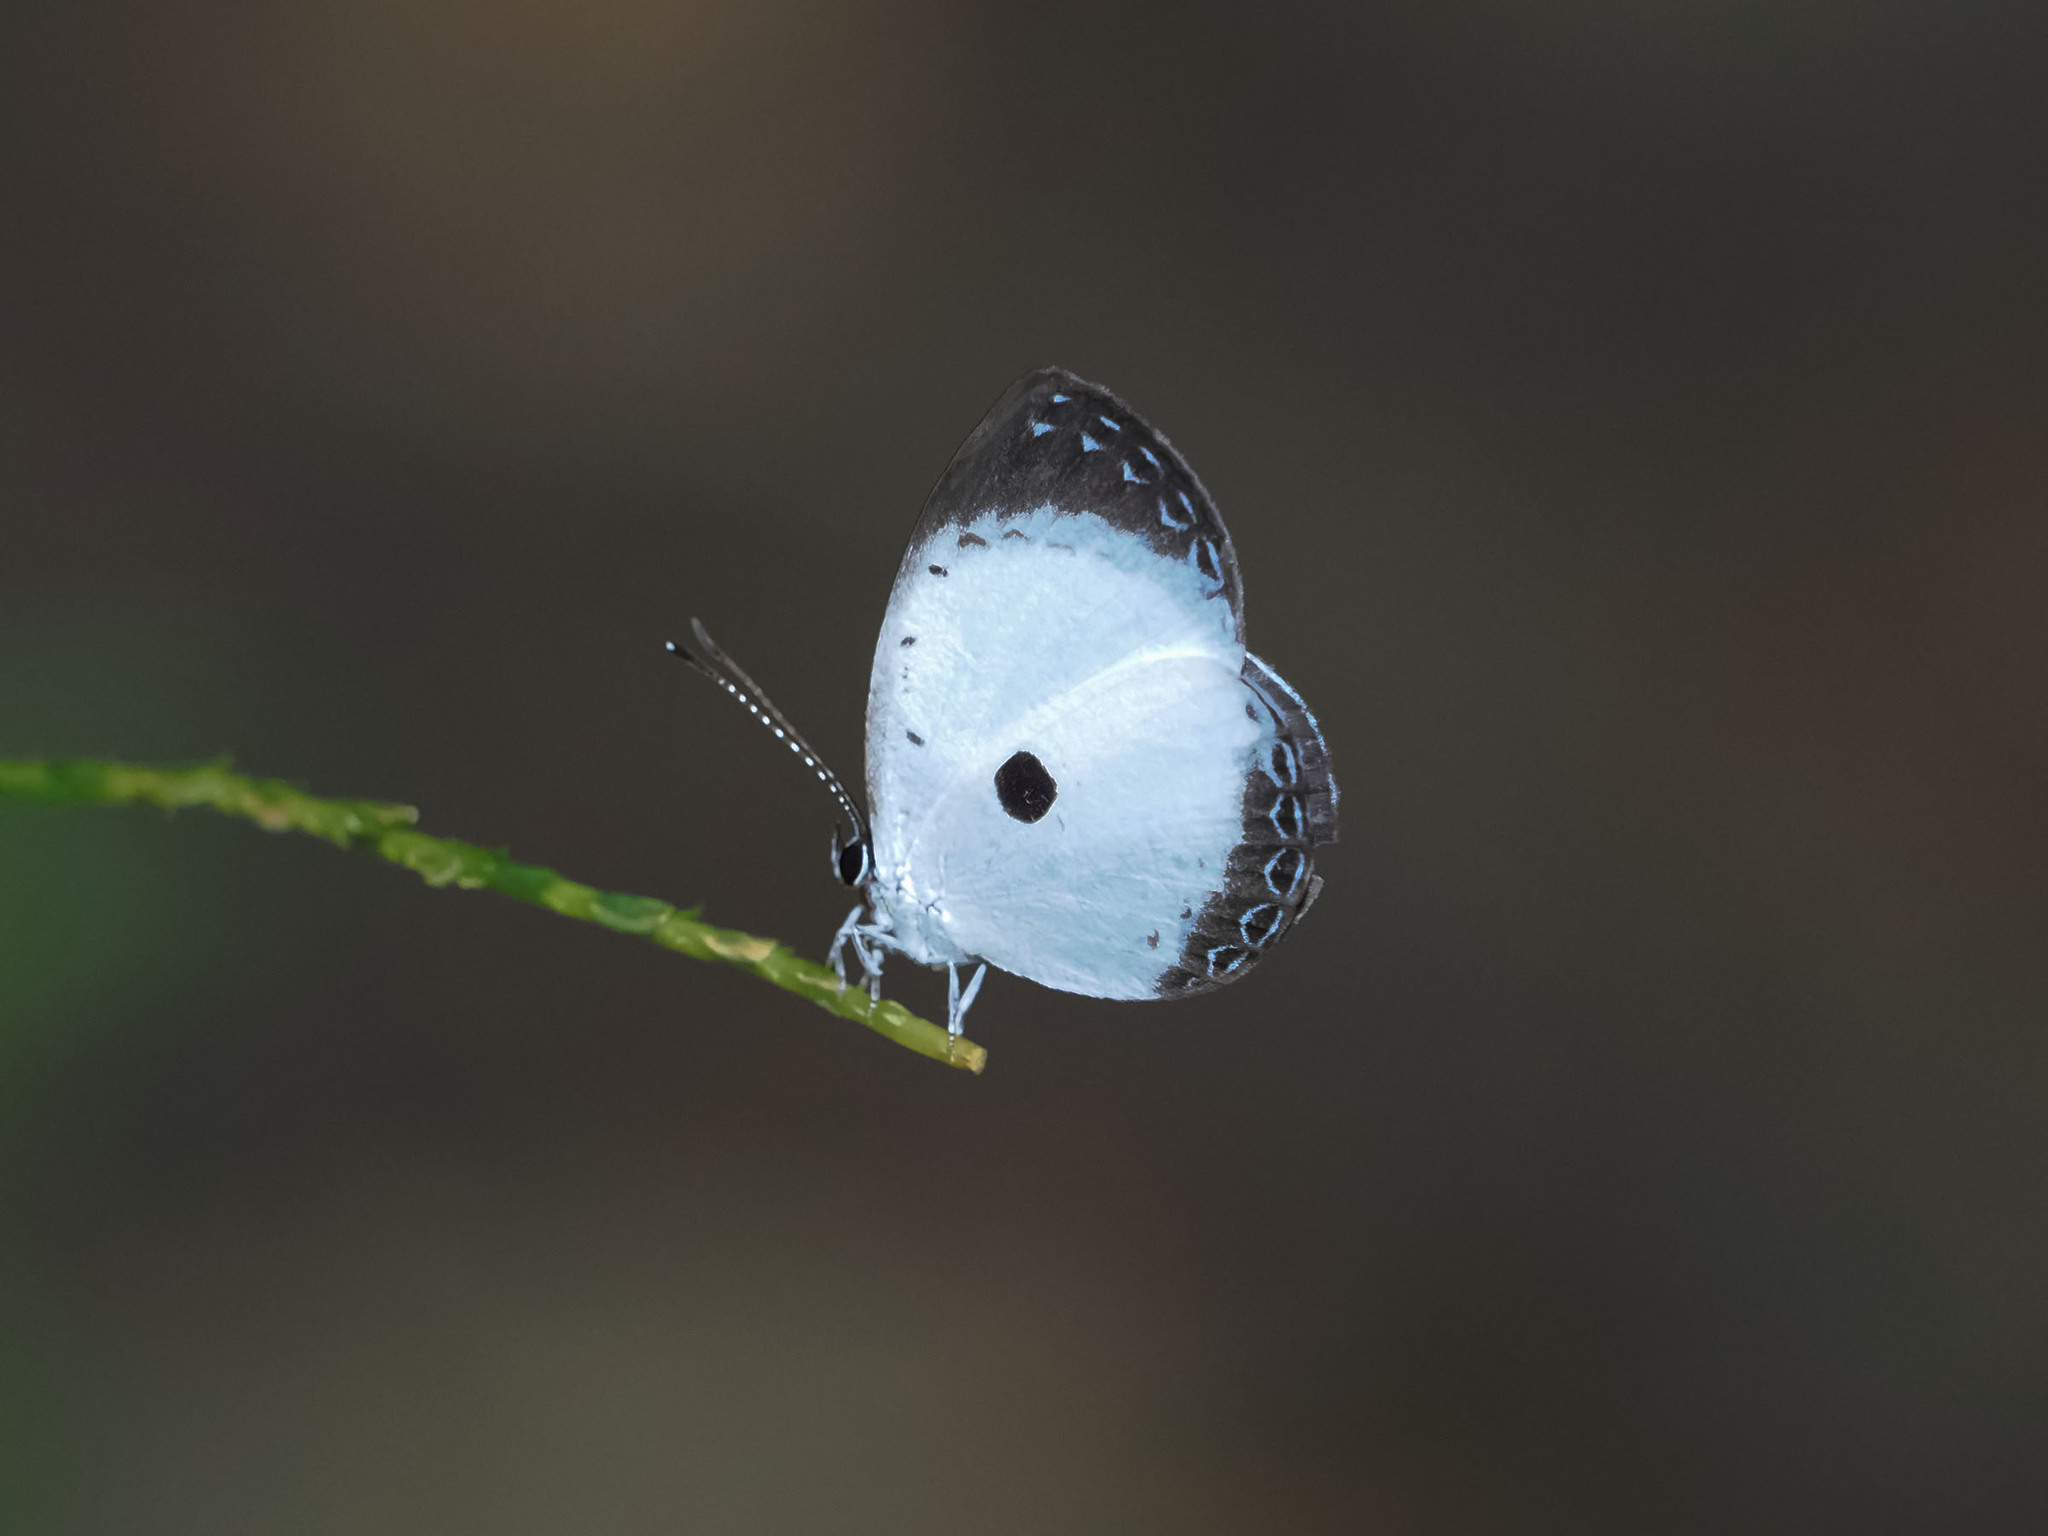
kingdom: Animalia
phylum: Arthropoda
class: Insecta
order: Lepidoptera
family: Lycaenidae
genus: Pithecops
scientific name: Pithecops dionisius
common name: Pied blue
